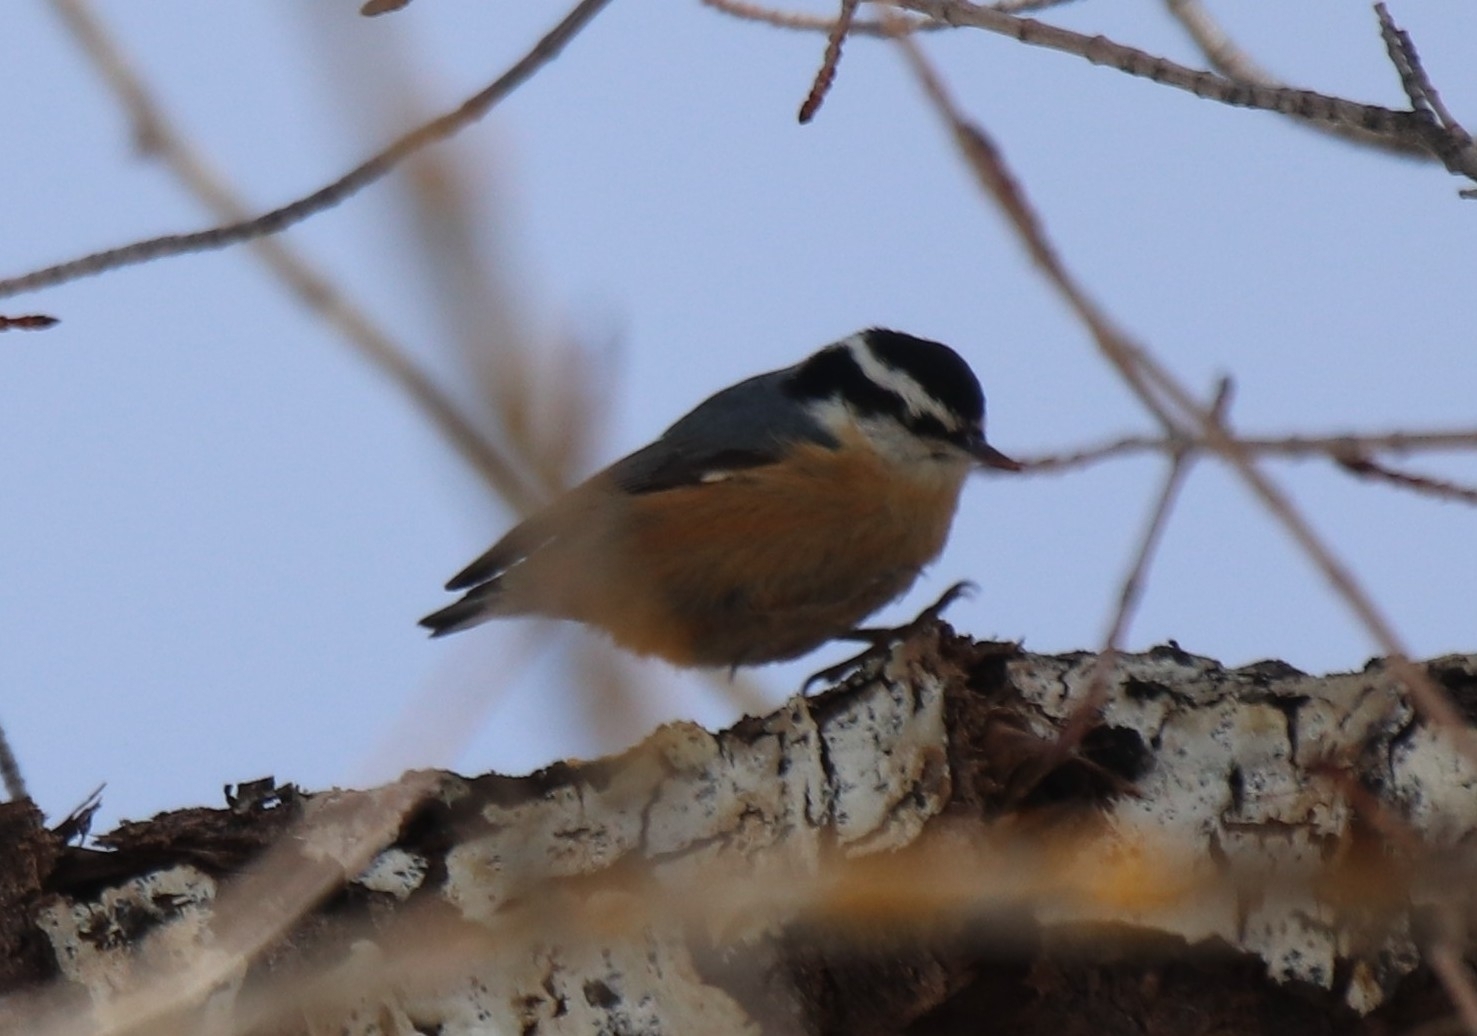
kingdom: Animalia
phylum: Chordata
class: Aves
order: Passeriformes
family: Sittidae
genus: Sitta
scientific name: Sitta canadensis
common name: Red-breasted nuthatch
